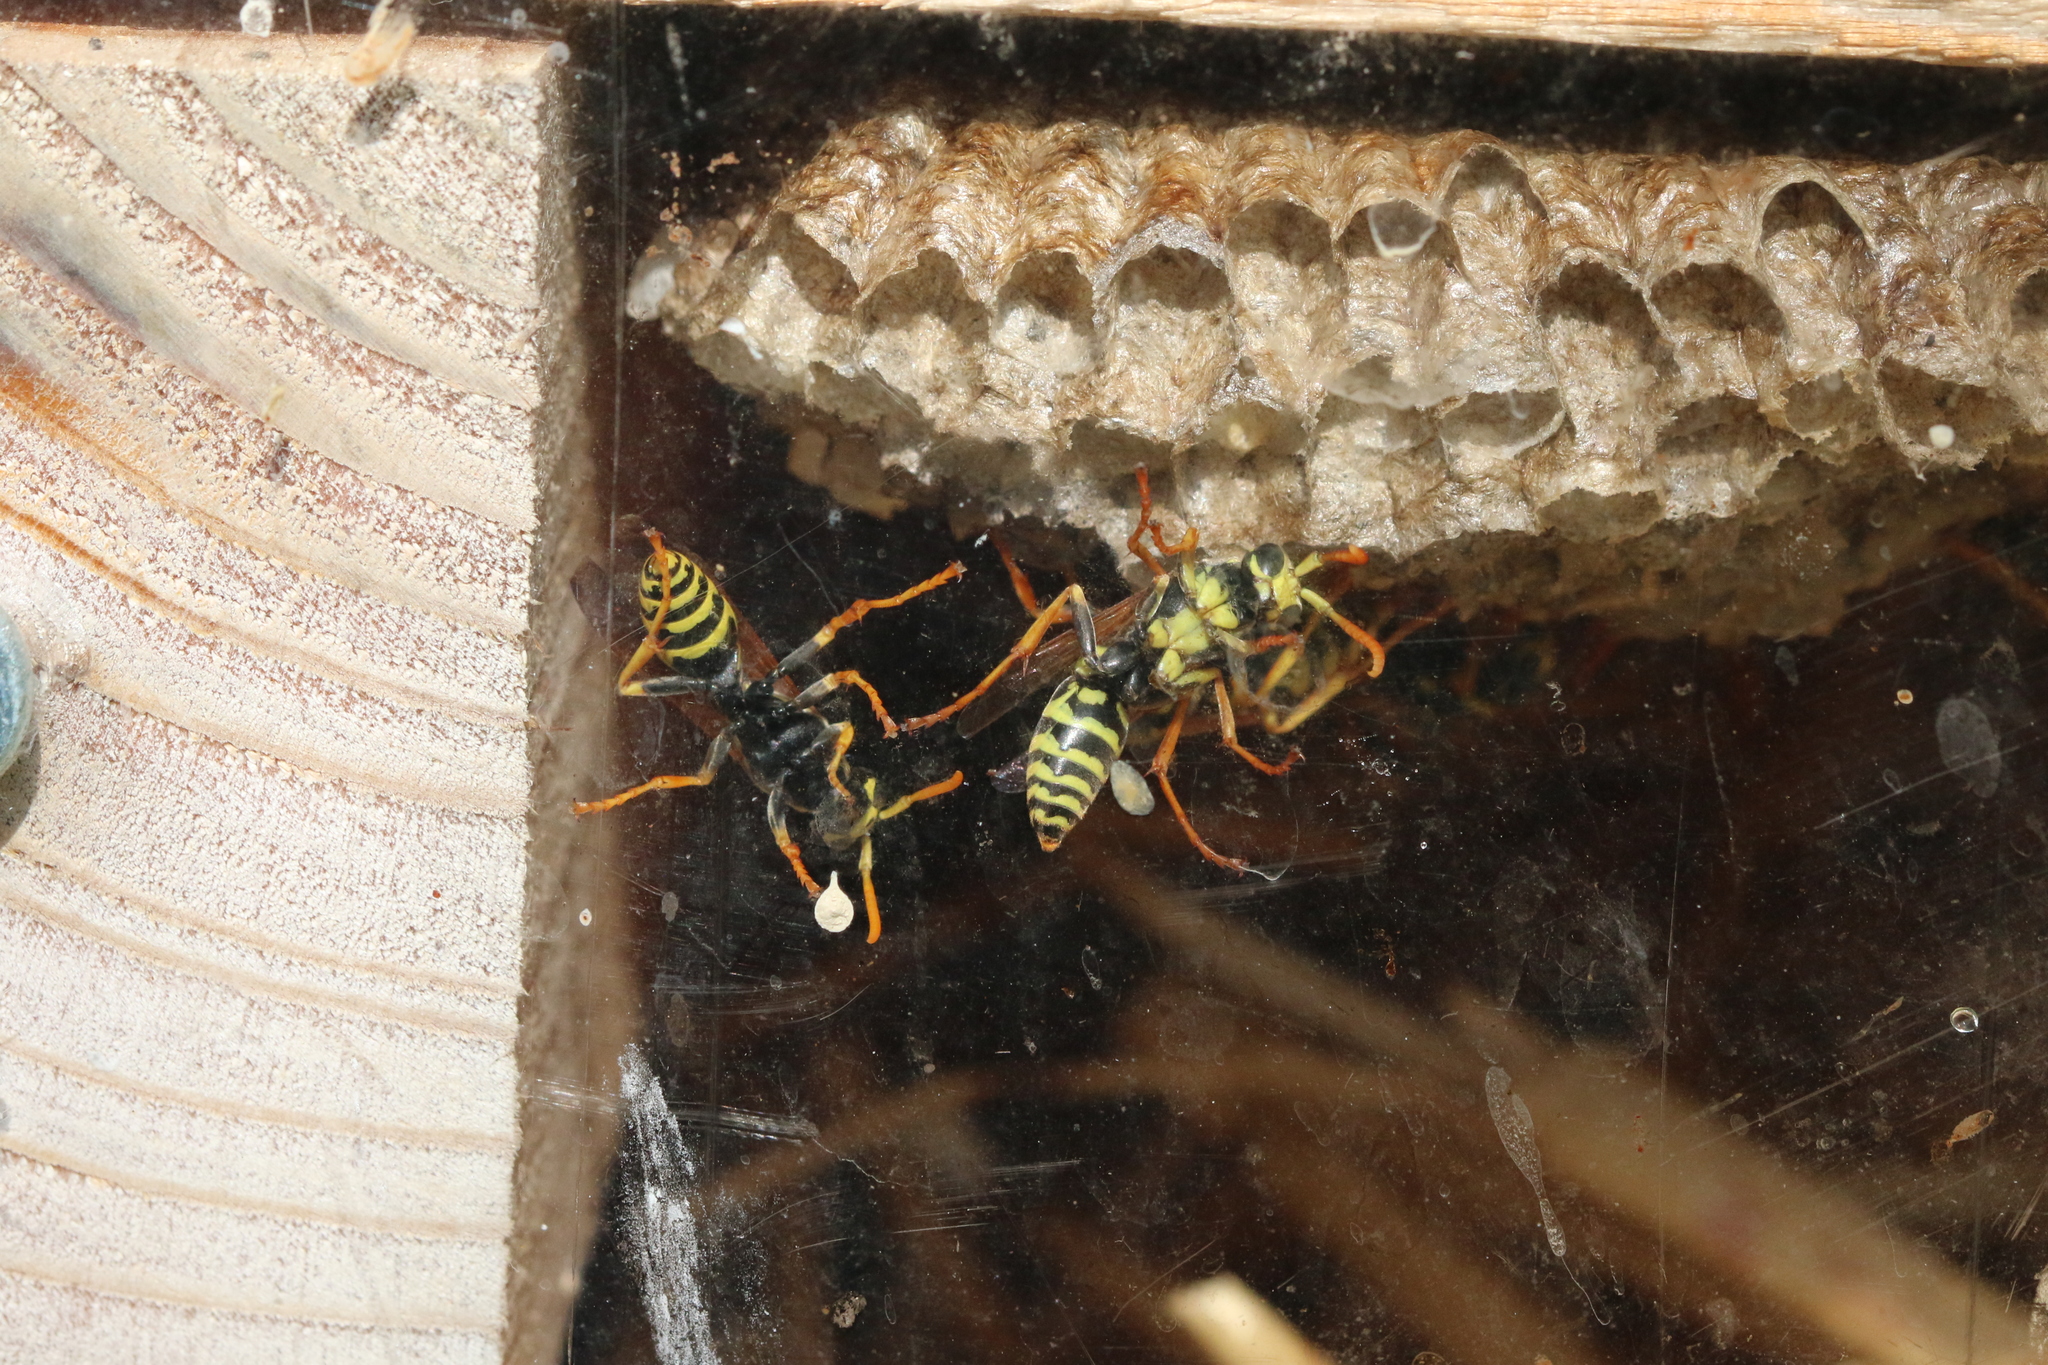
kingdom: Animalia
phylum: Arthropoda
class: Insecta
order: Hymenoptera
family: Eumenidae
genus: Polistes
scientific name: Polistes dominula
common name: Paper wasp
